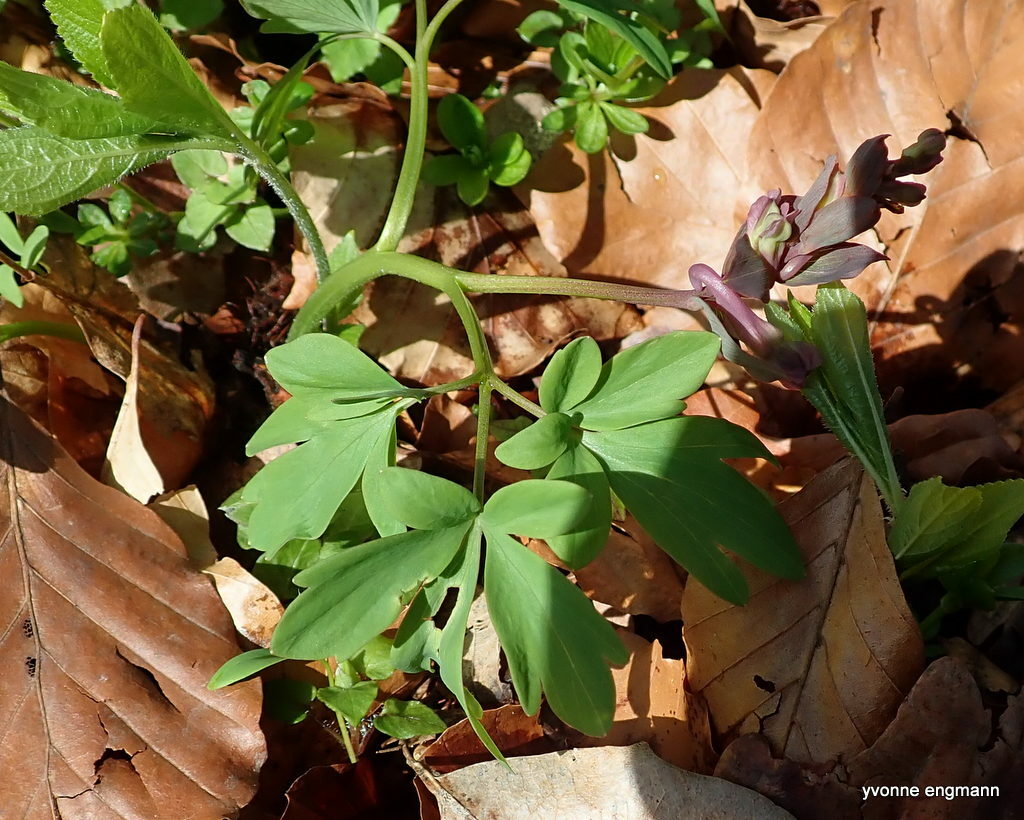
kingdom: Plantae
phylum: Tracheophyta
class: Magnoliopsida
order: Ranunculales
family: Papaveraceae
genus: Corydalis
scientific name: Corydalis cava
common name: Hollowroot
